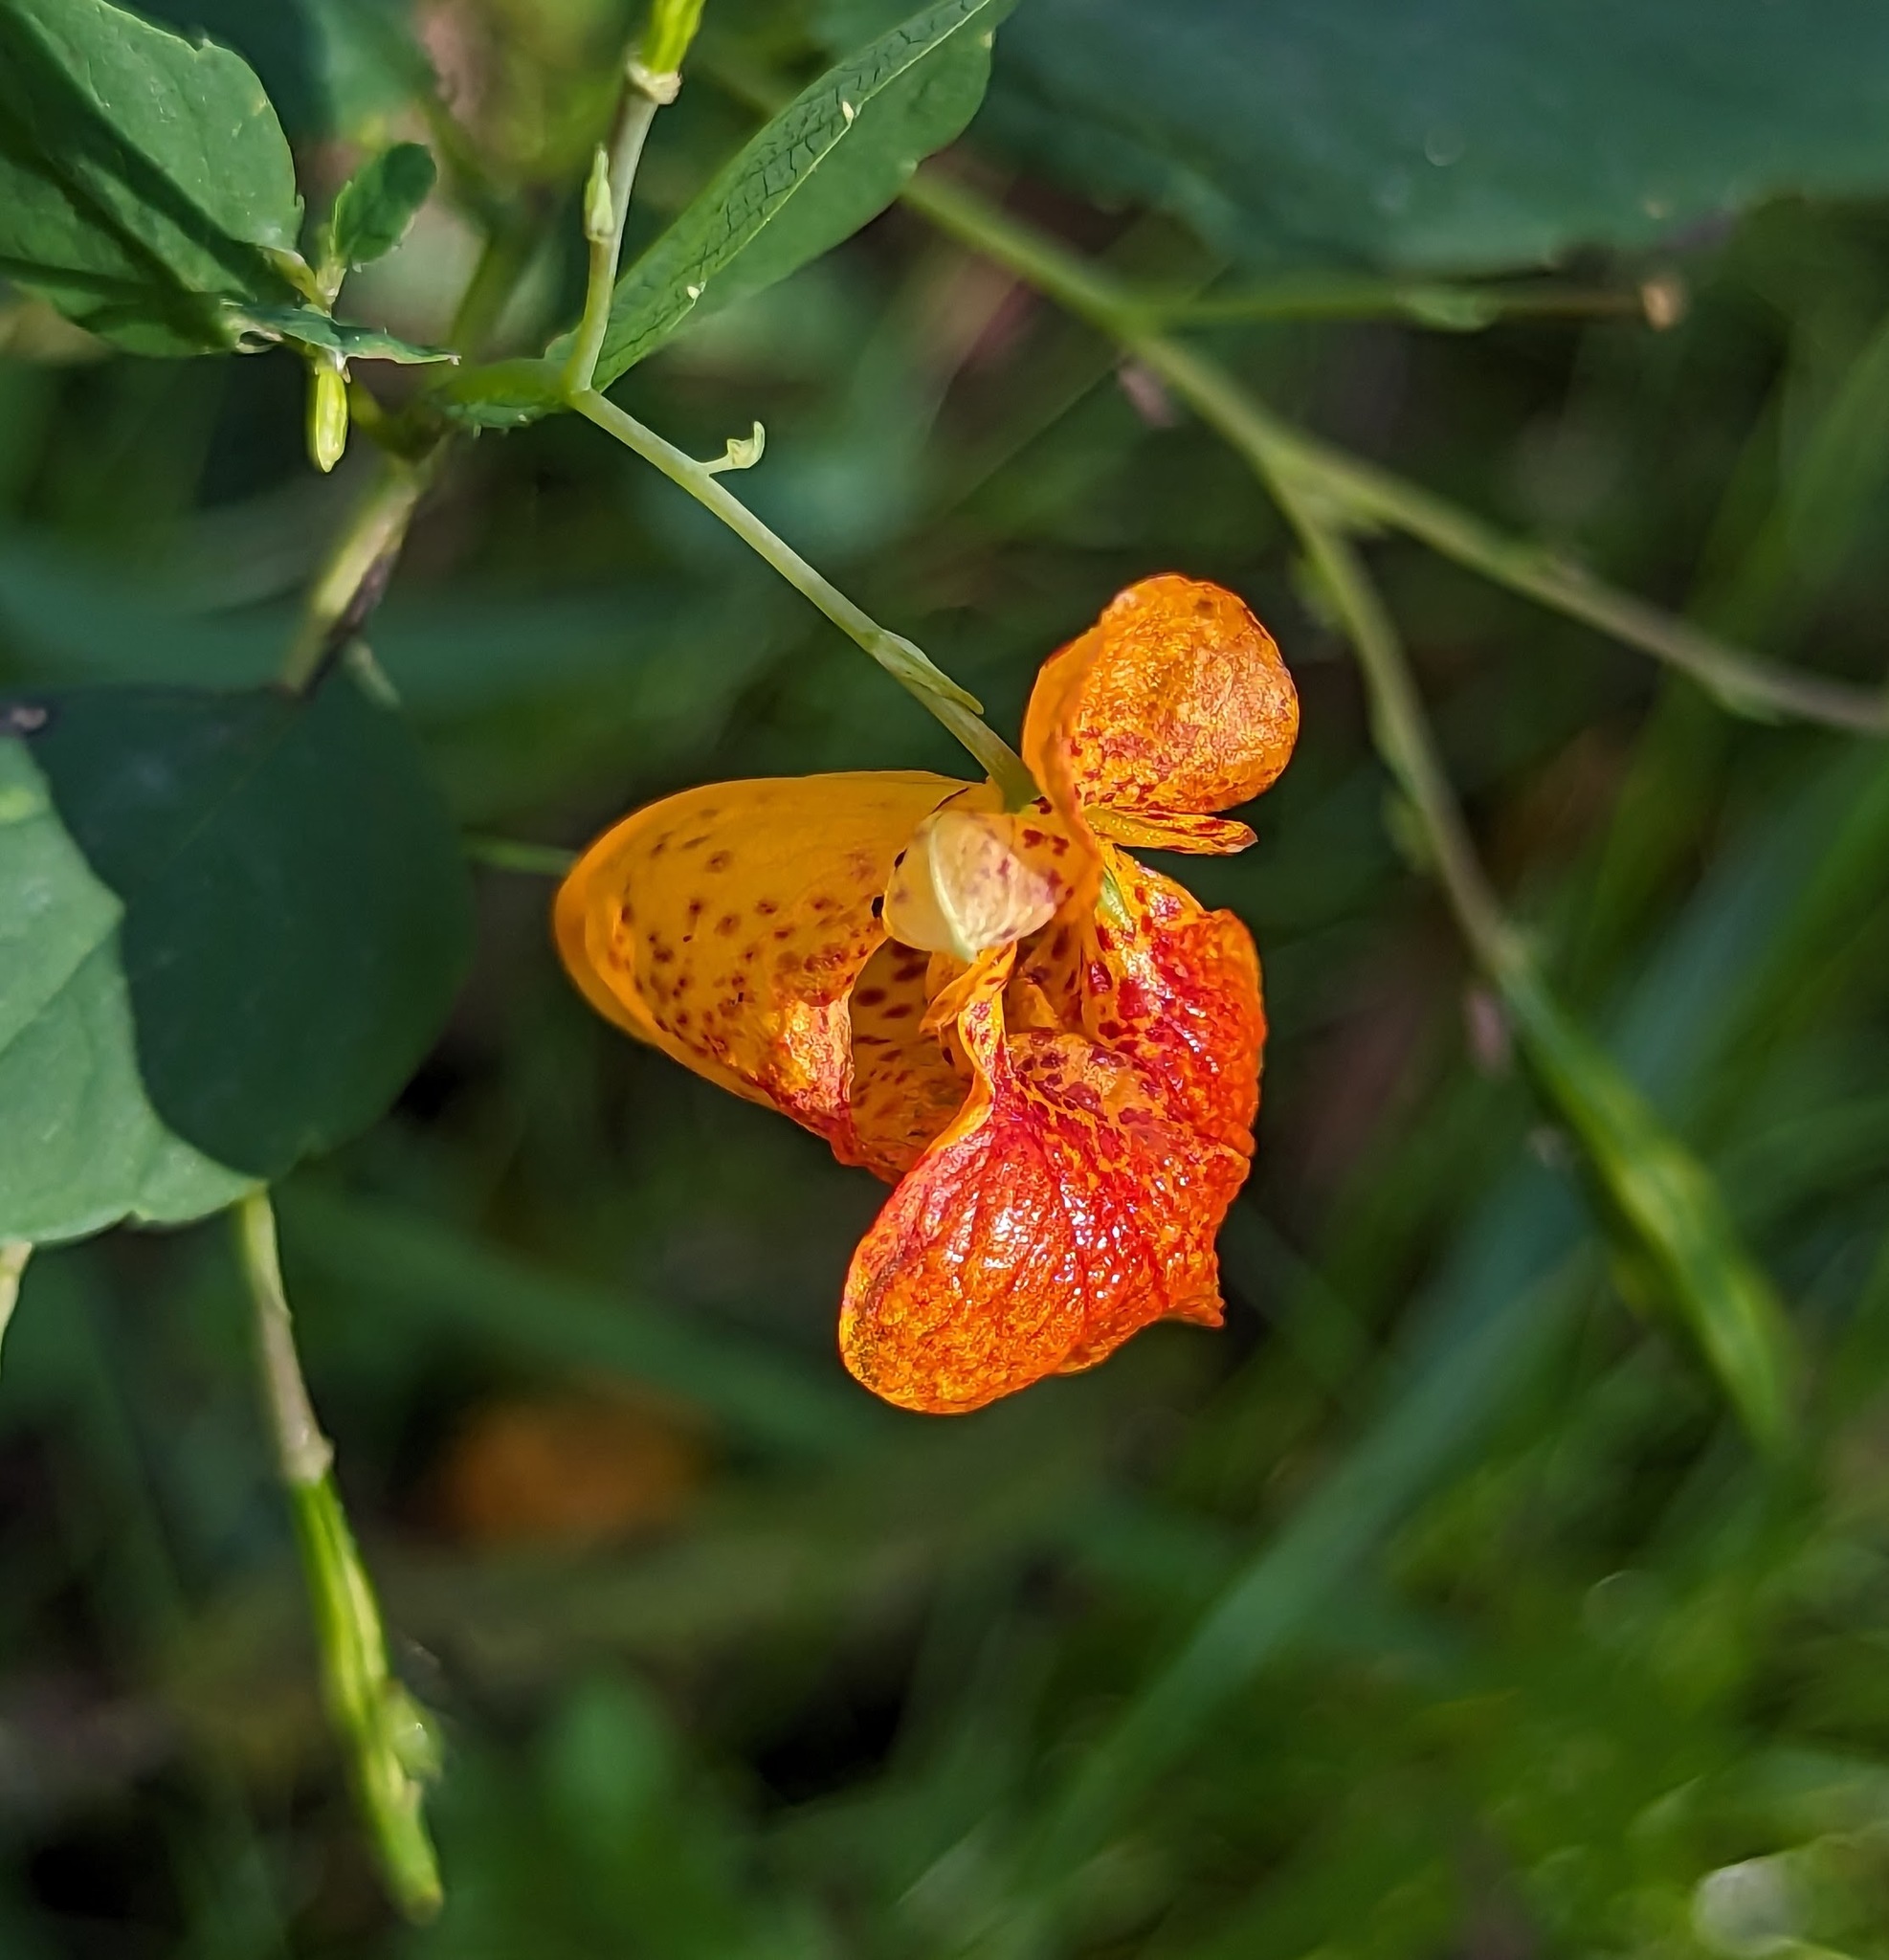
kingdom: Plantae
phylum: Tracheophyta
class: Magnoliopsida
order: Ericales
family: Balsaminaceae
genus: Impatiens
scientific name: Impatiens capensis
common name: Orange balsam
